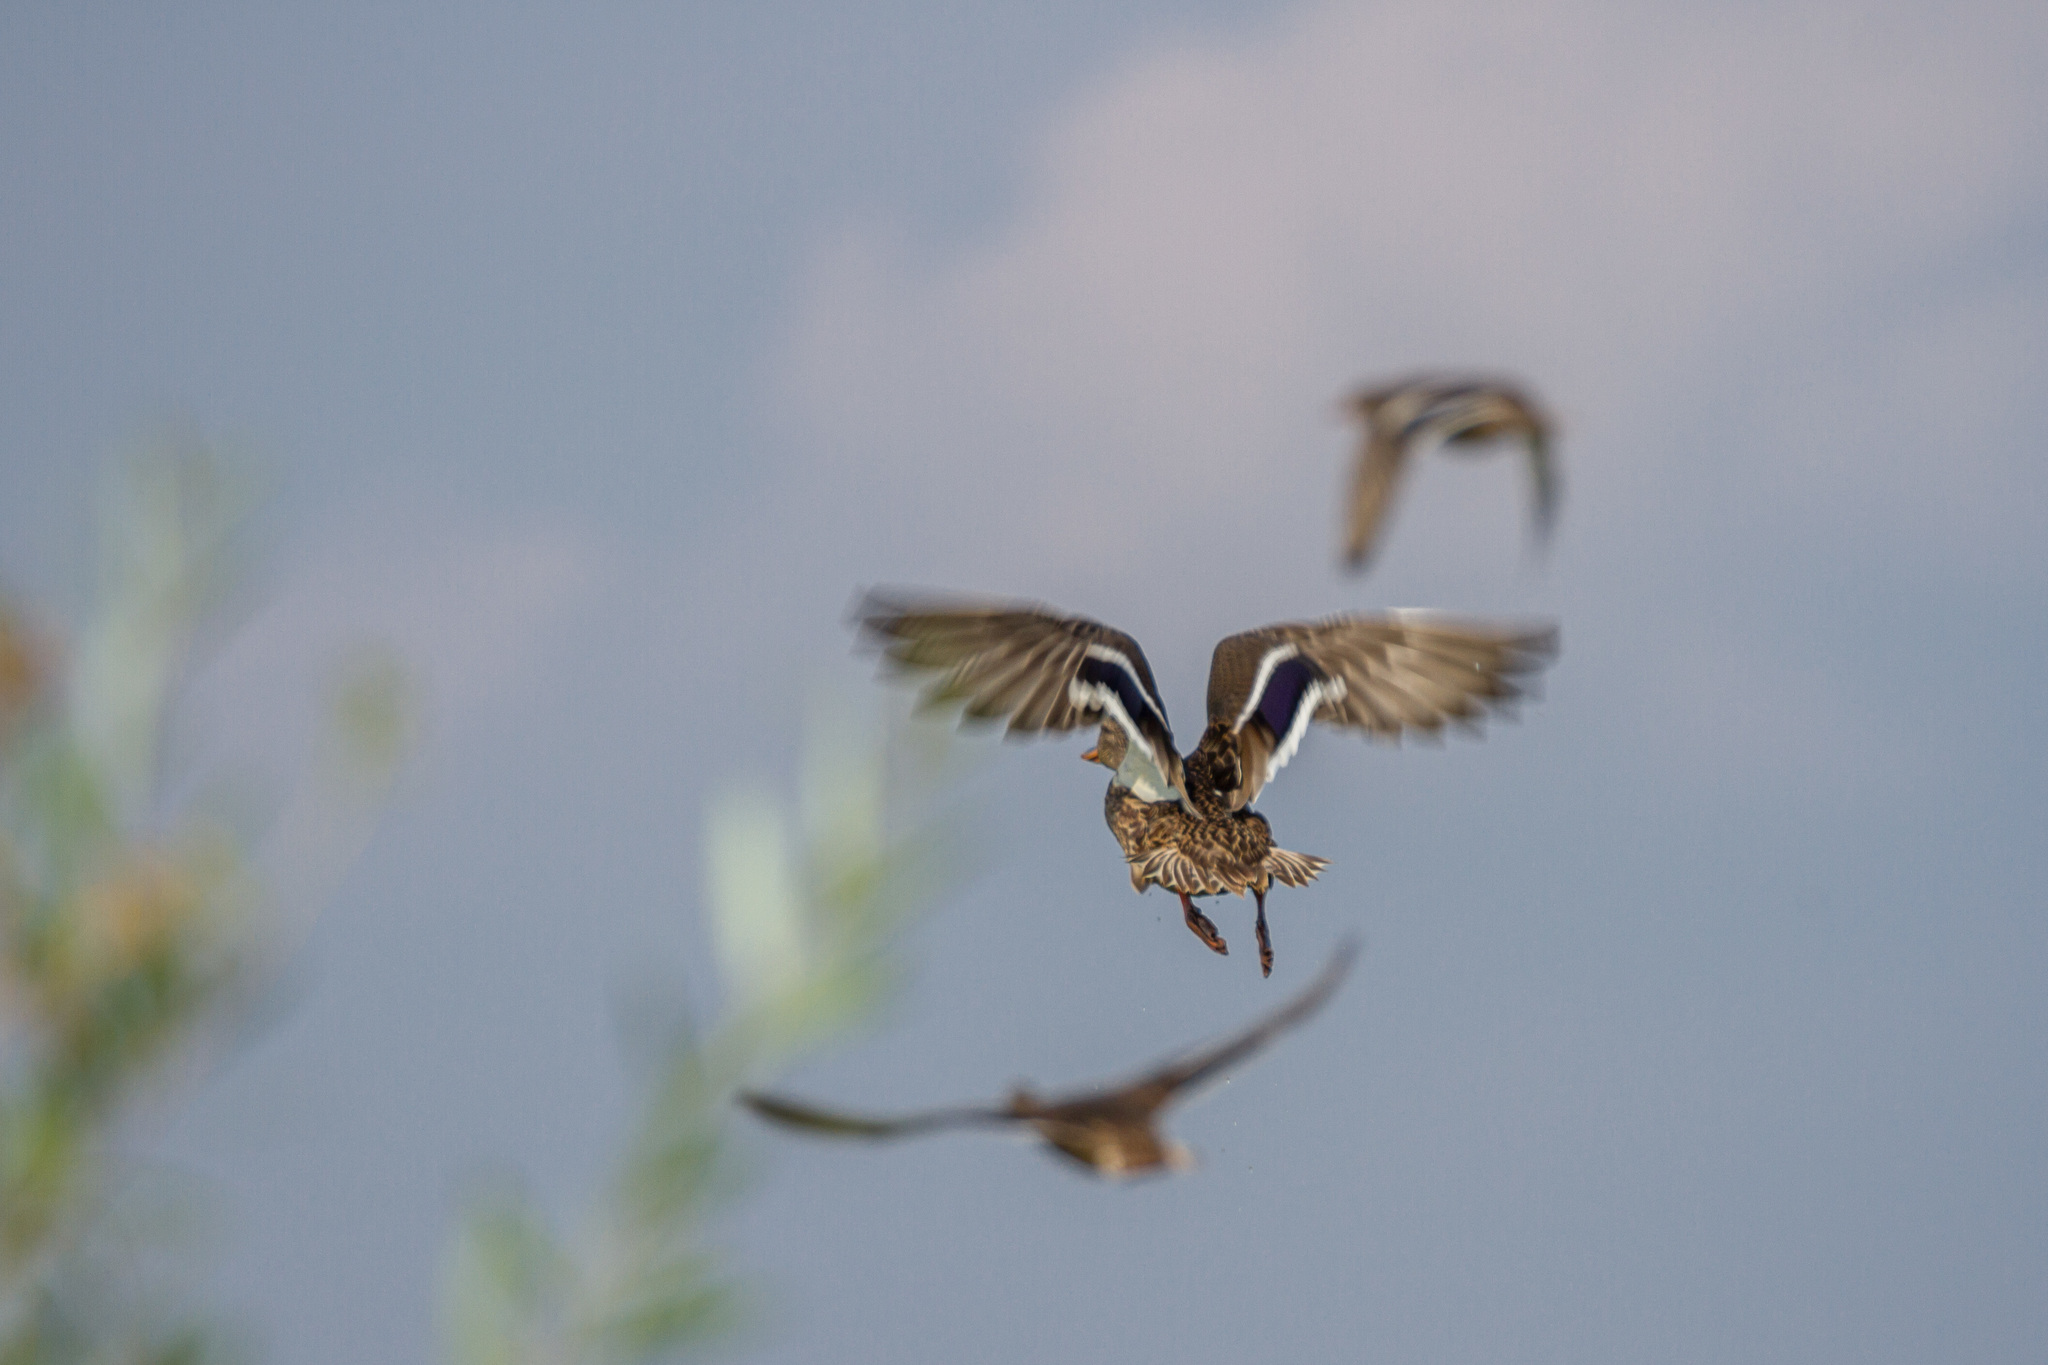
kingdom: Animalia
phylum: Chordata
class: Aves
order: Anseriformes
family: Anatidae
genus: Anas
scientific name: Anas platyrhynchos
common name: Mallard
